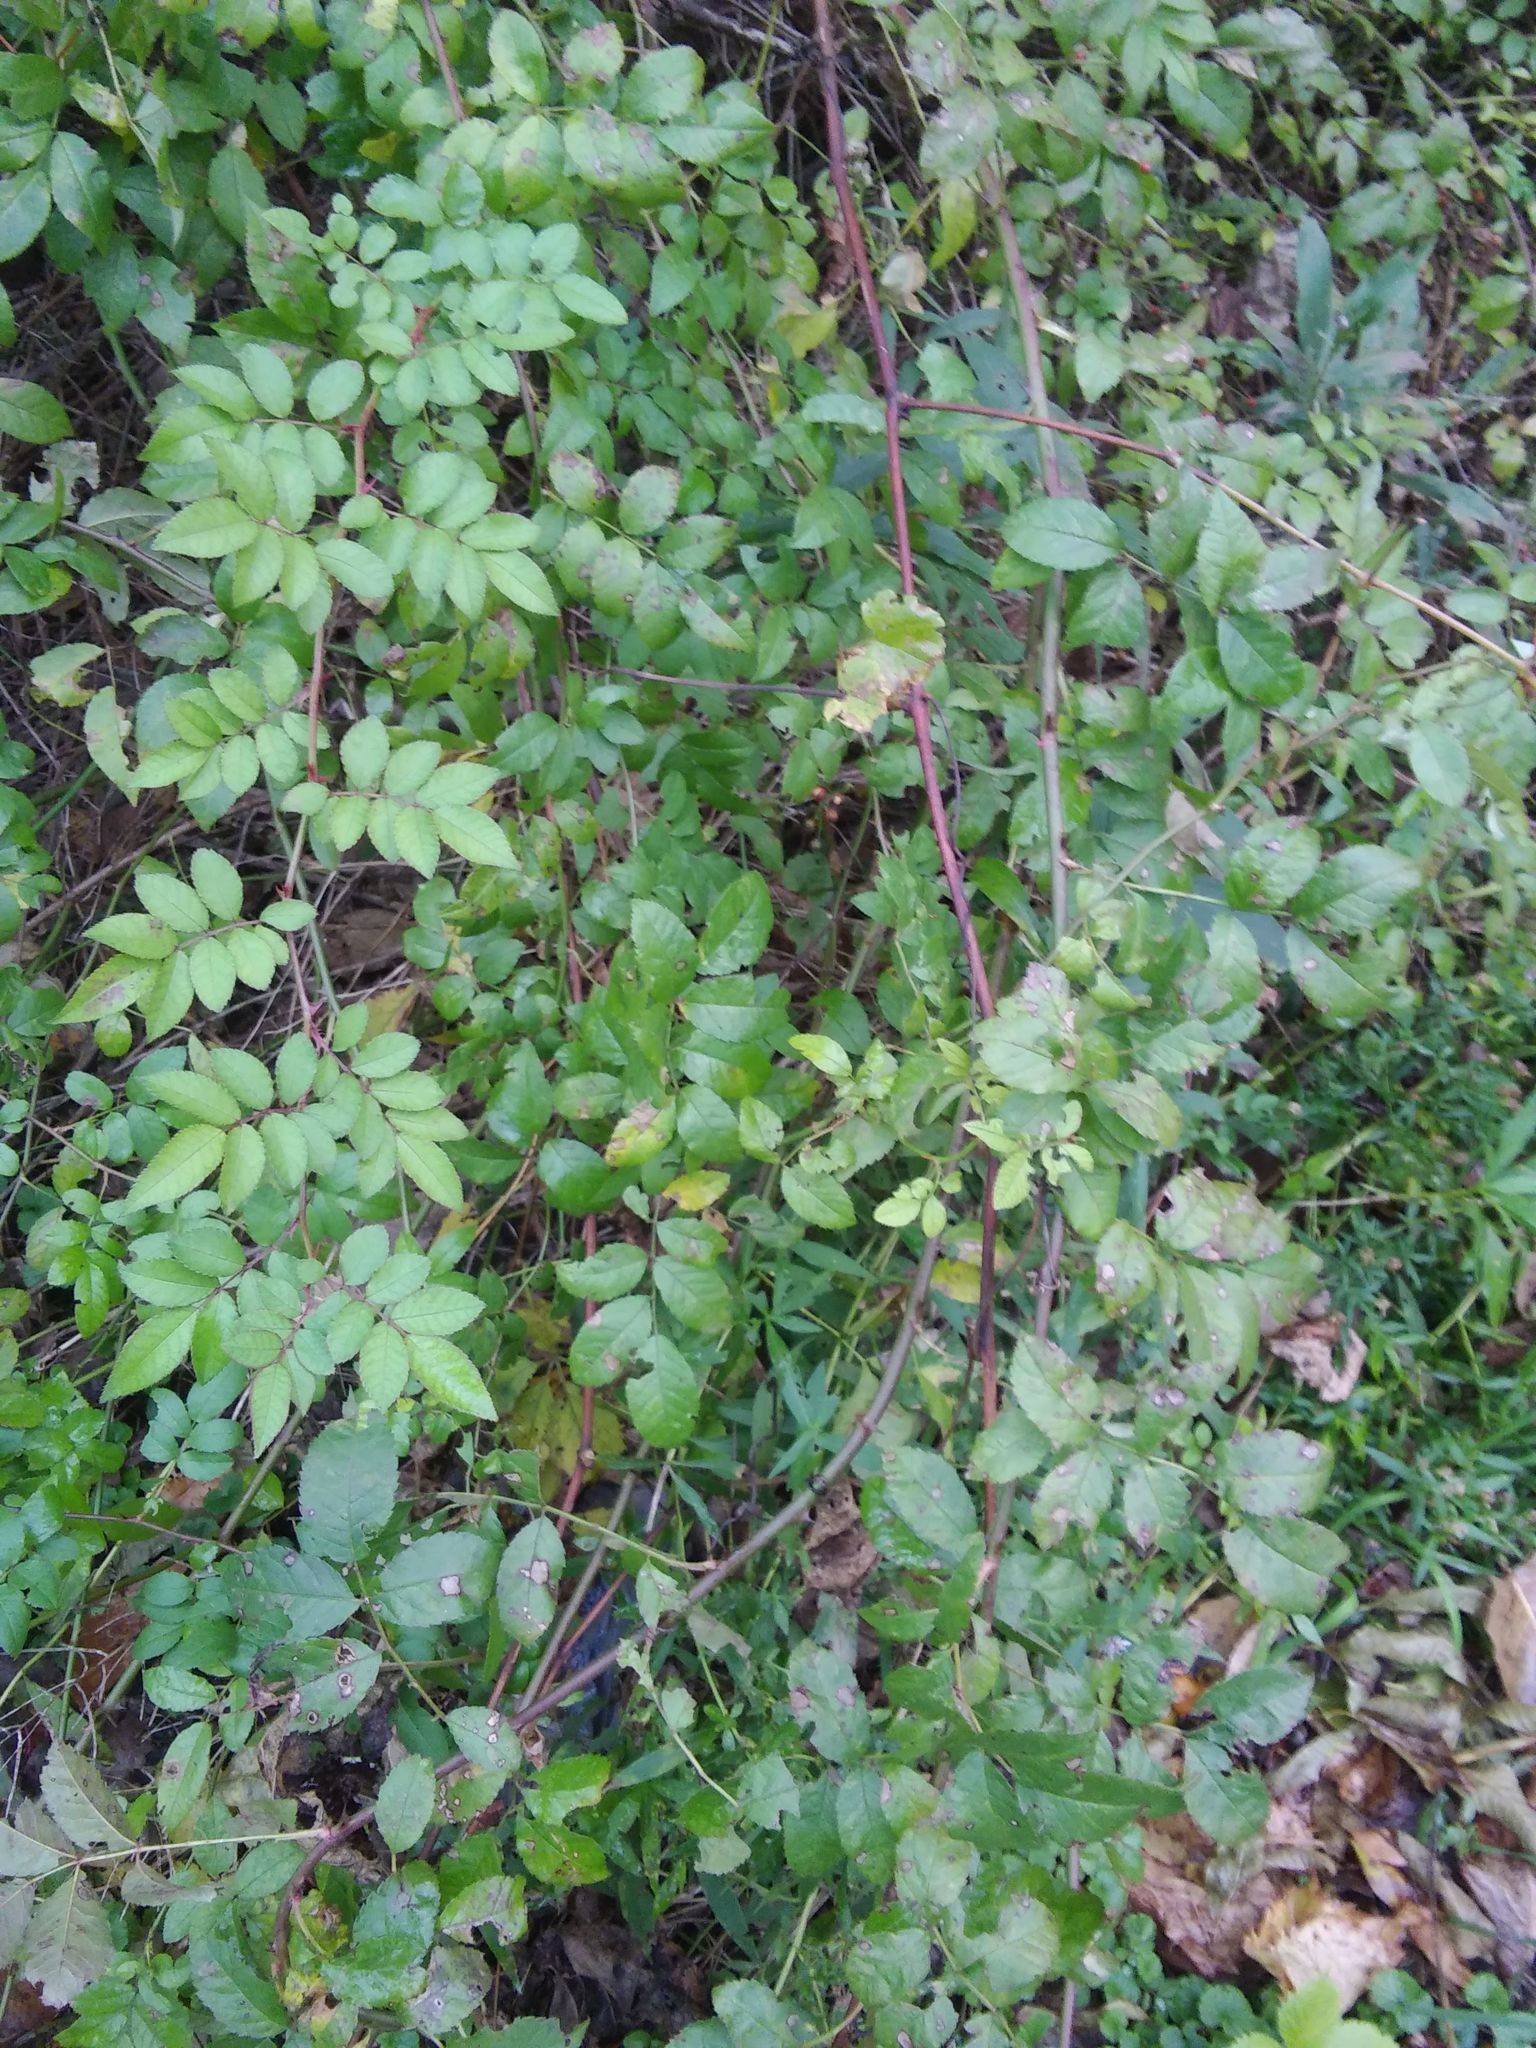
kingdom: Plantae
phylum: Tracheophyta
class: Magnoliopsida
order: Rosales
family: Rosaceae
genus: Rosa
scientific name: Rosa multiflora
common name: Multiflora rose
